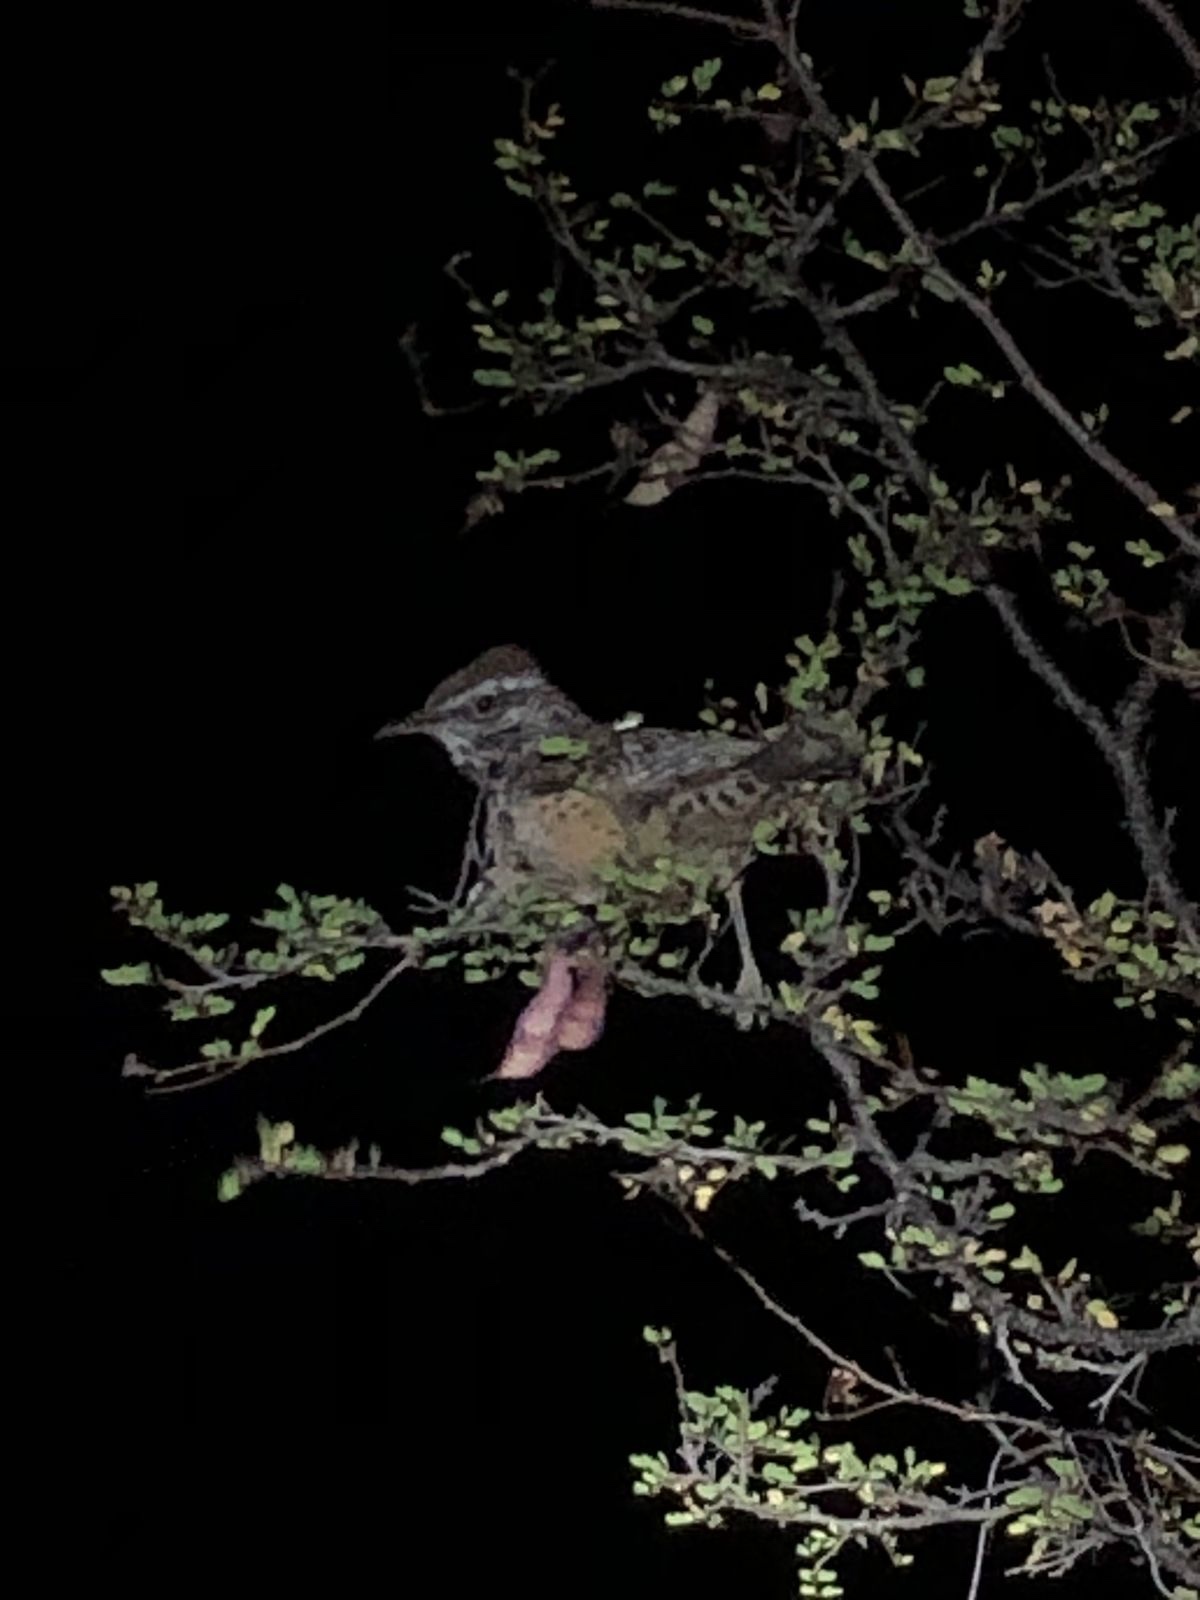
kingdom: Animalia
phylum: Chordata
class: Aves
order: Passeriformes
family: Troglodytidae
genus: Campylorhynchus
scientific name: Campylorhynchus brunneicapillus
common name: Cactus wren
